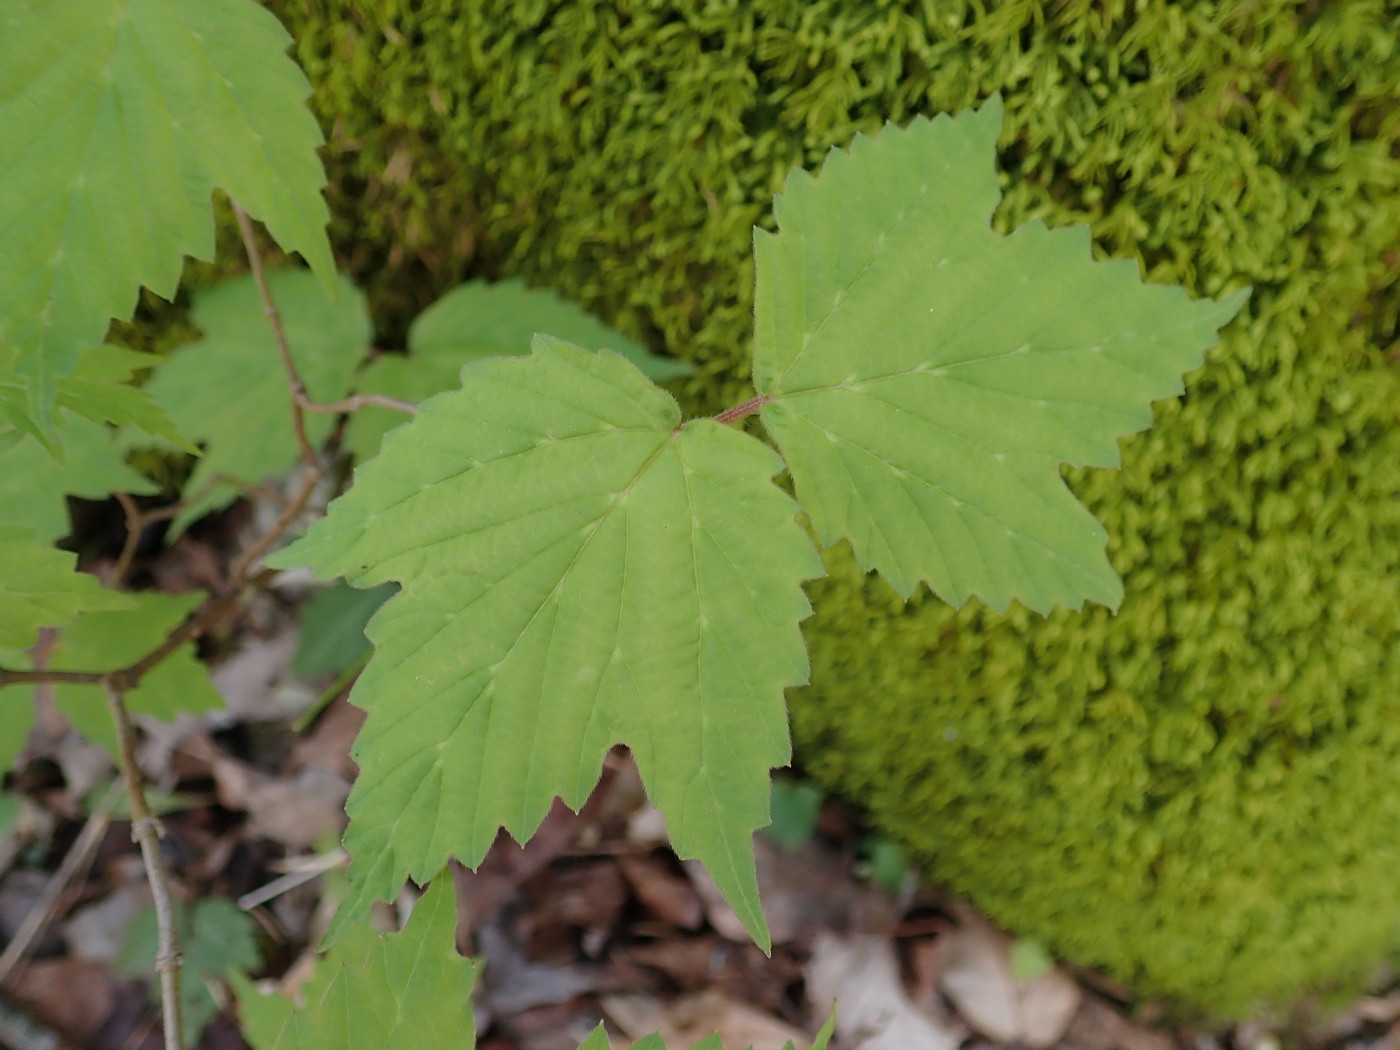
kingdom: Plantae
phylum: Tracheophyta
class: Magnoliopsida
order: Dipsacales
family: Viburnaceae
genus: Viburnum
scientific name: Viburnum acerifolium
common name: Dockmackie
